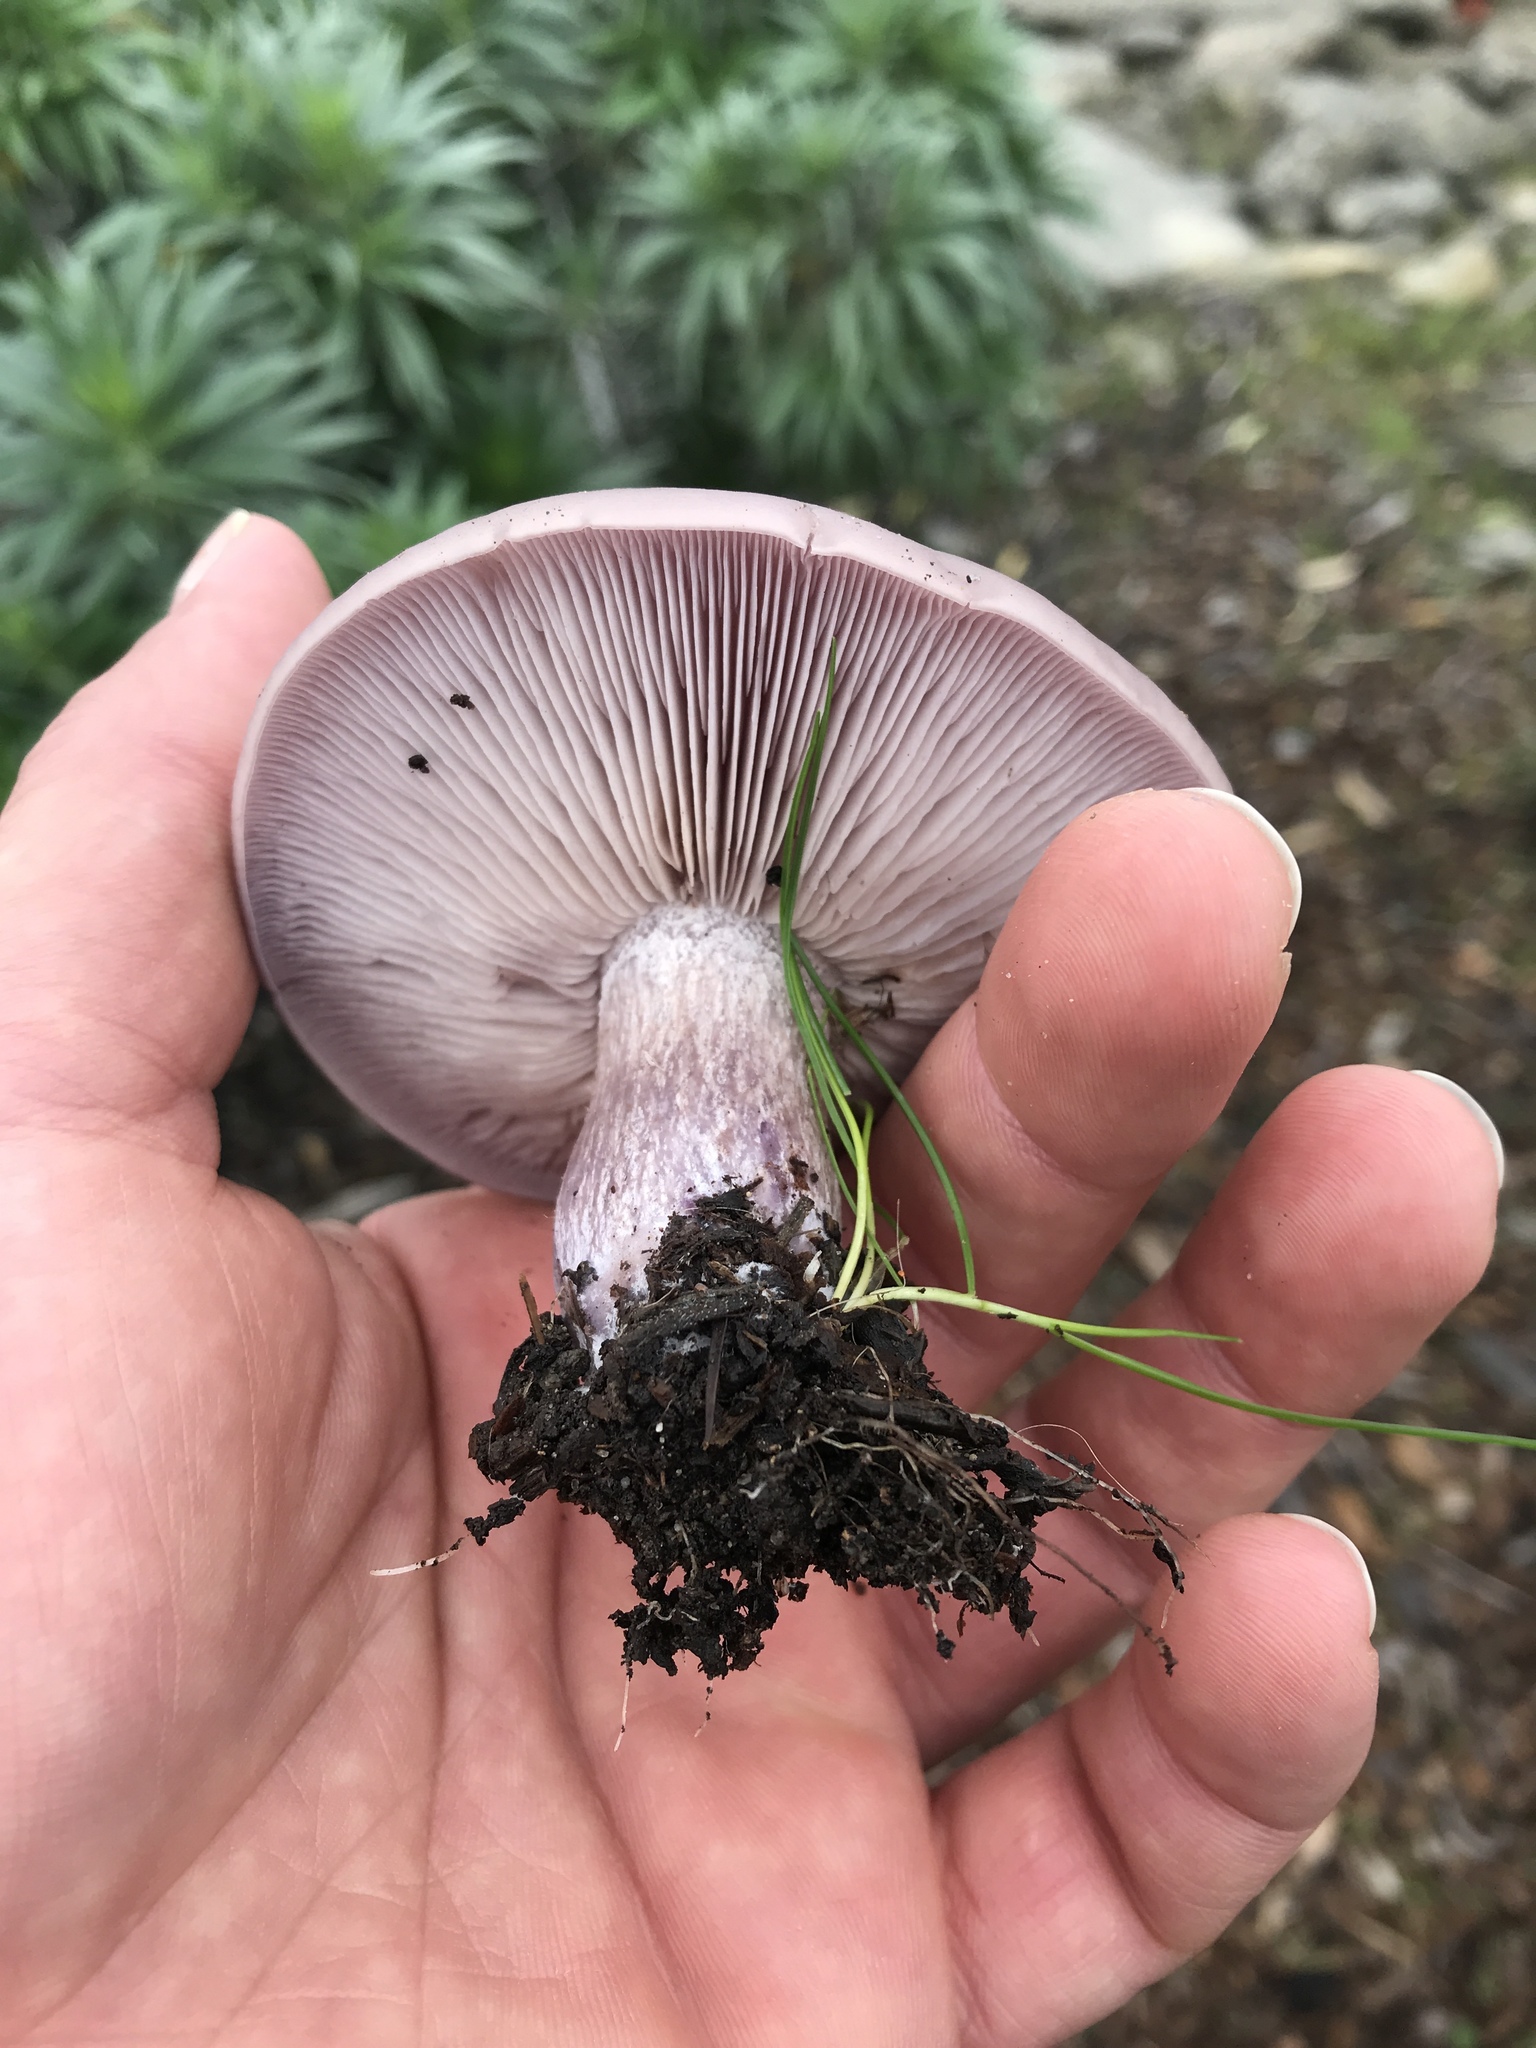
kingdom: Fungi
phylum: Basidiomycota
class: Agaricomycetes
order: Agaricales
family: Tricholomataceae
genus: Collybia
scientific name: Collybia
